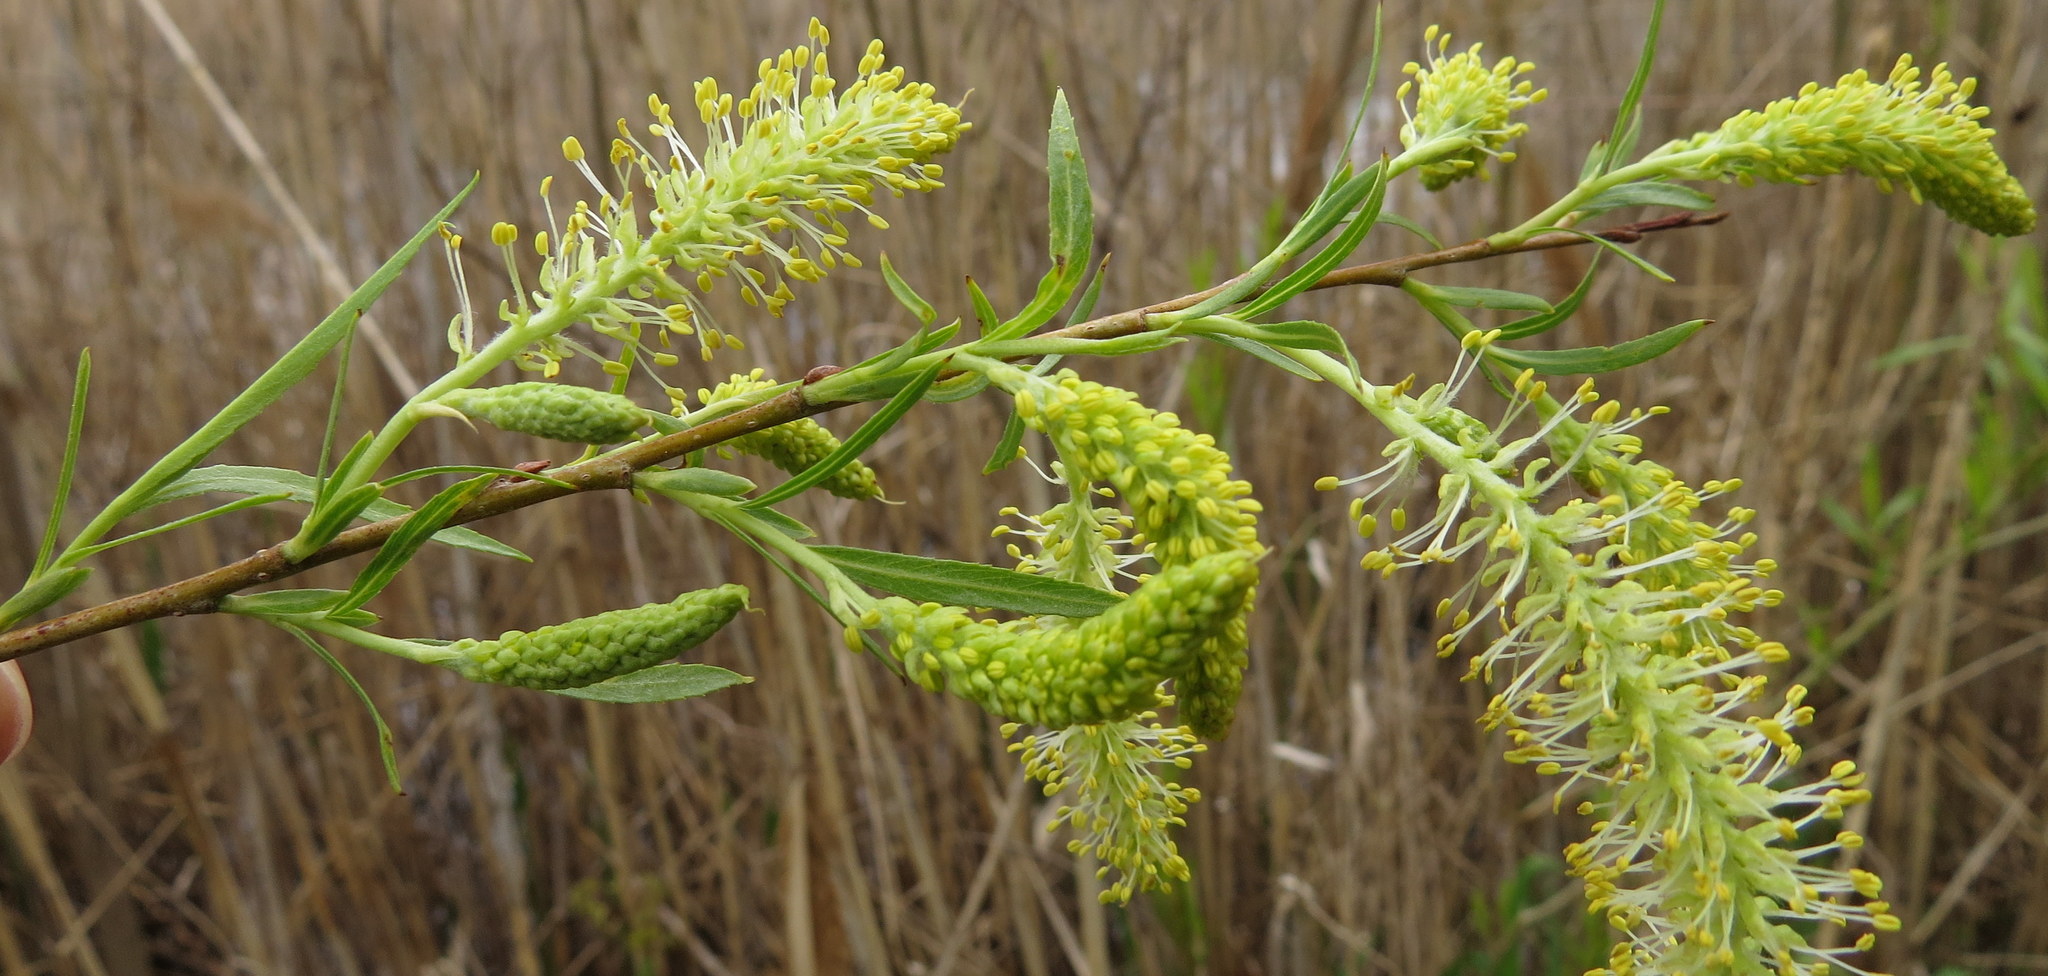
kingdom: Plantae
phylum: Tracheophyta
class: Magnoliopsida
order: Malpighiales
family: Salicaceae
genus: Salix
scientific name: Salix interior
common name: Sandbar willow
